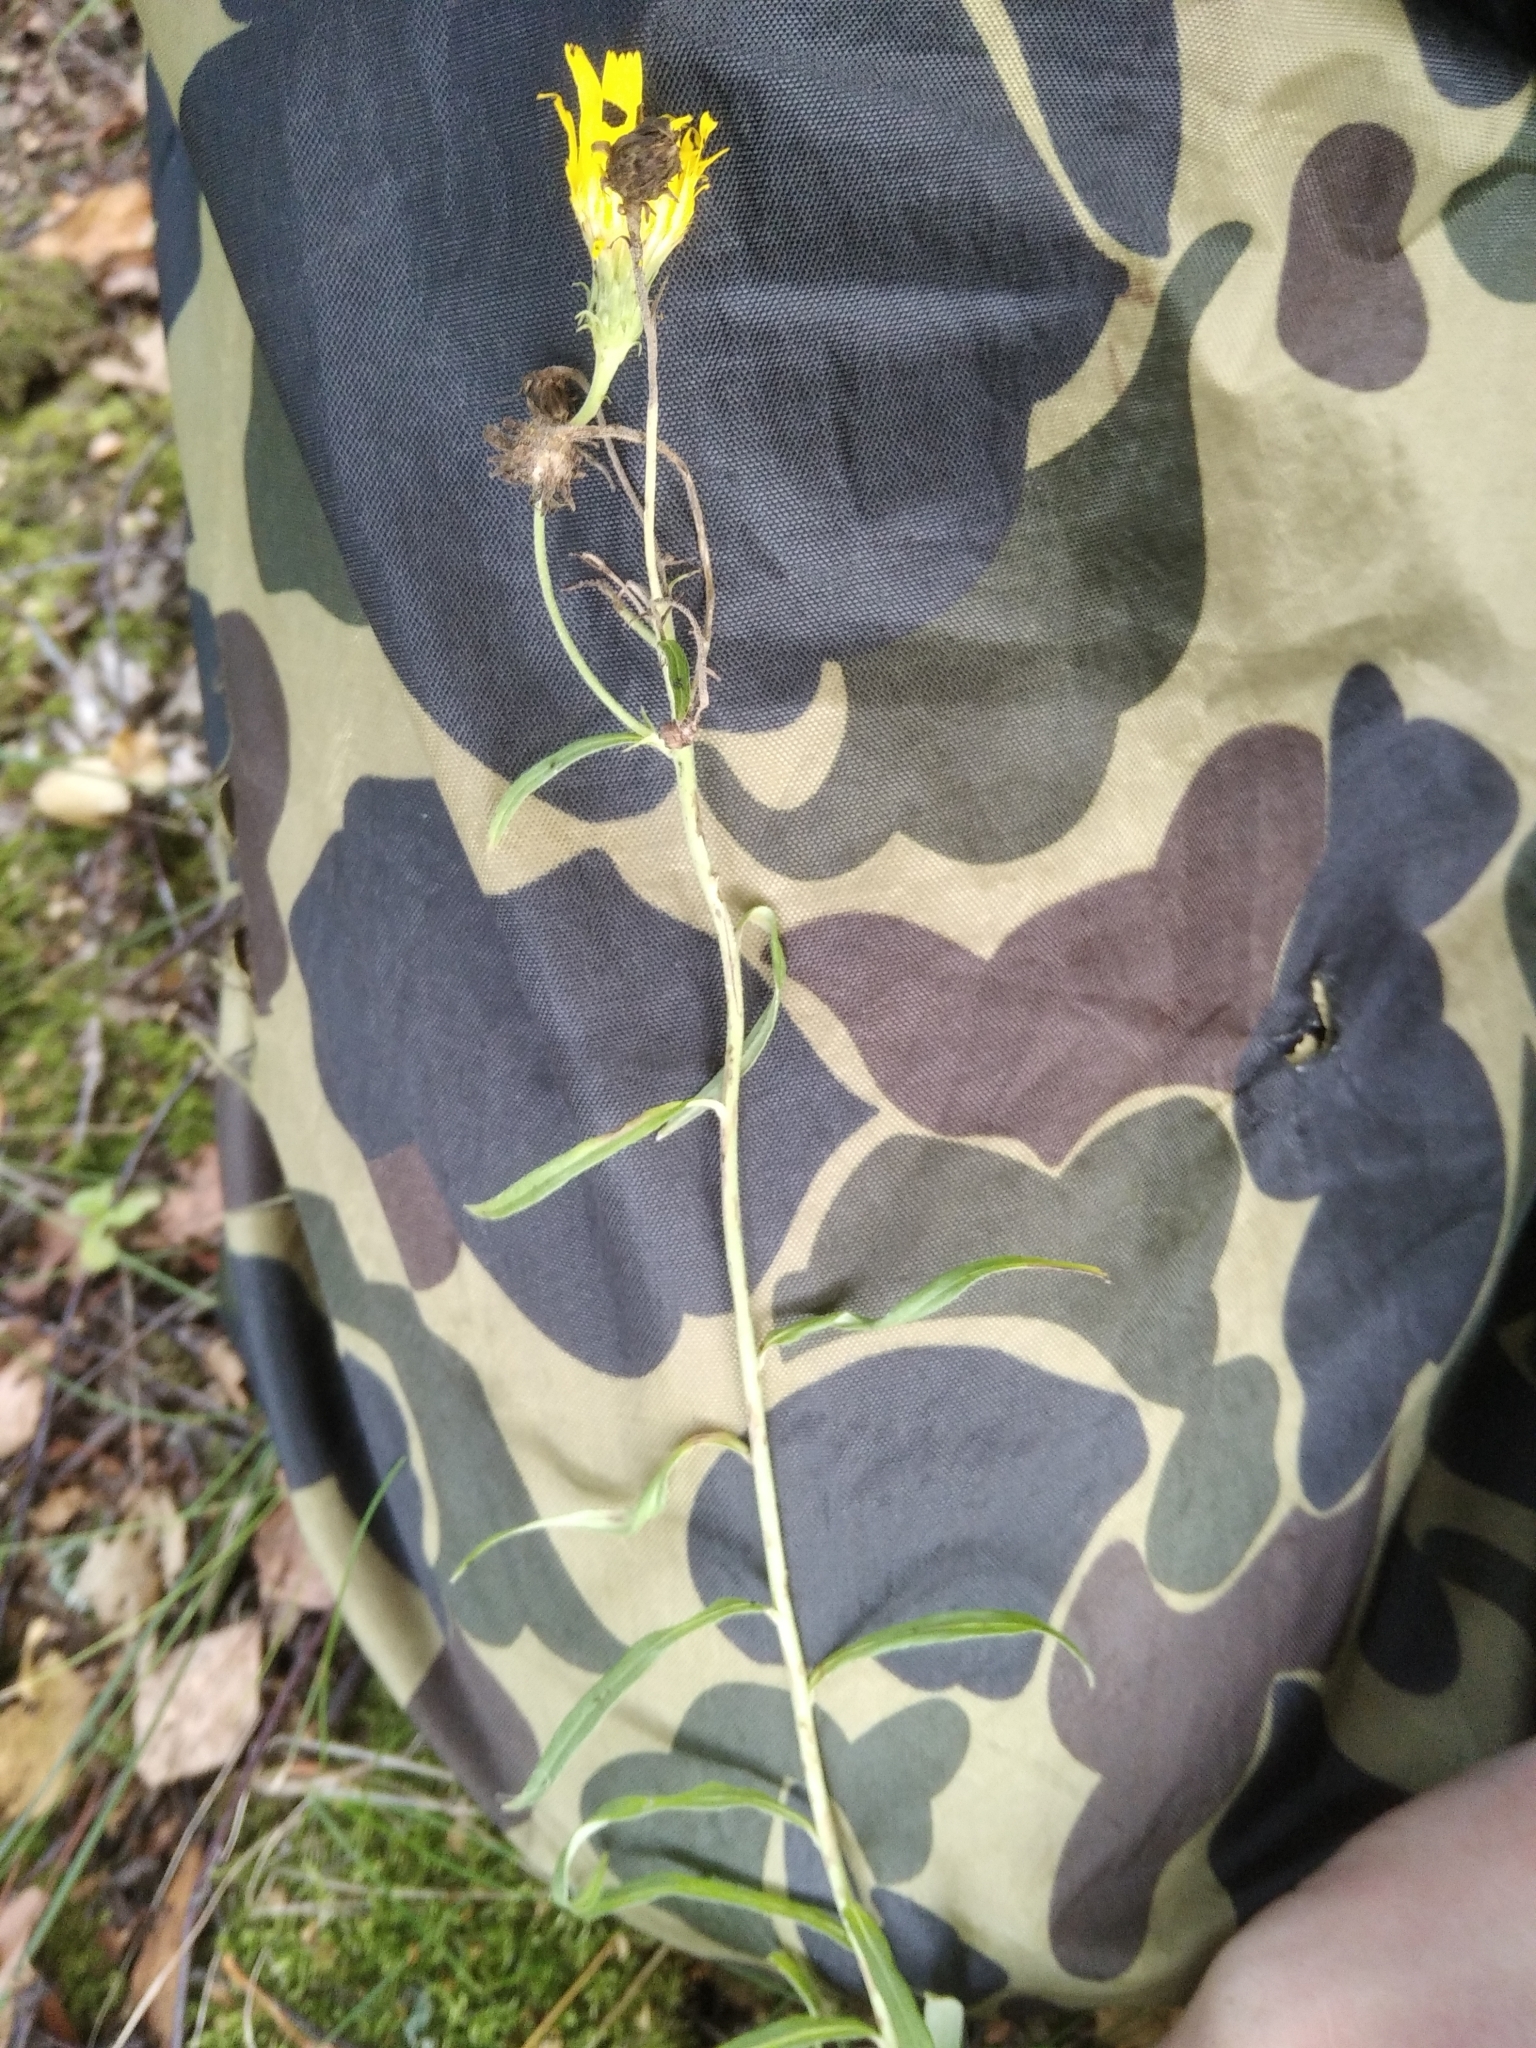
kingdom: Plantae
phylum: Tracheophyta
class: Magnoliopsida
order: Asterales
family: Asteraceae
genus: Hieracium
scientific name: Hieracium umbellatum
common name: Northern hawkweed
